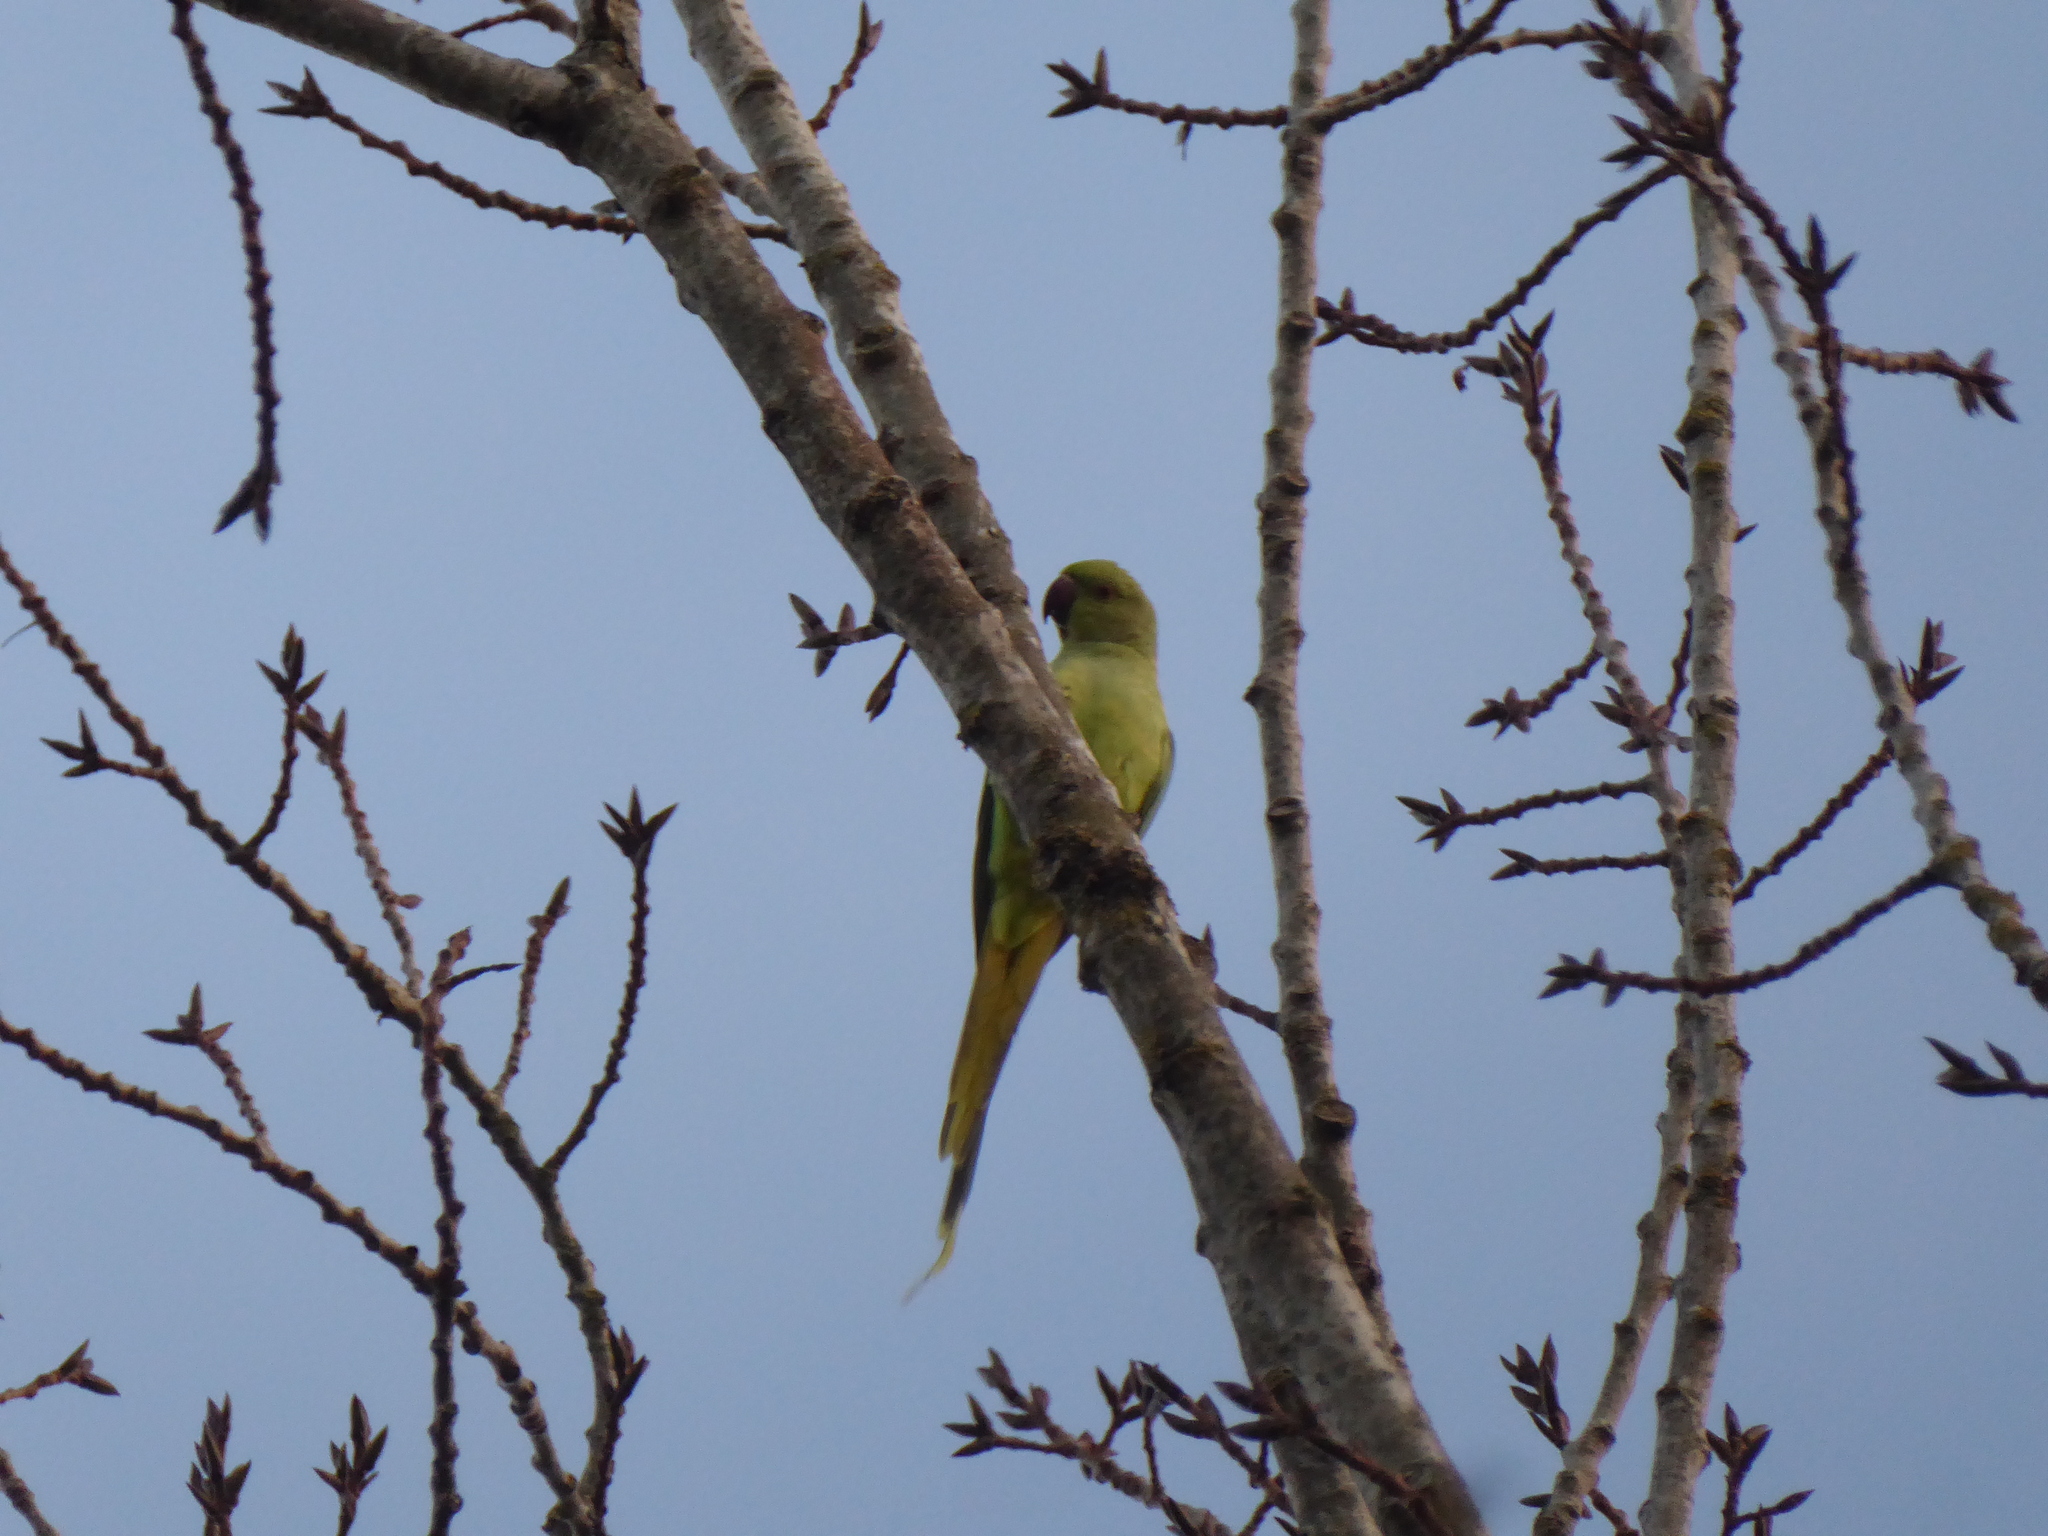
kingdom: Animalia
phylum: Chordata
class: Aves
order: Psittaciformes
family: Psittacidae
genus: Psittacula
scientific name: Psittacula krameri
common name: Rose-ringed parakeet
